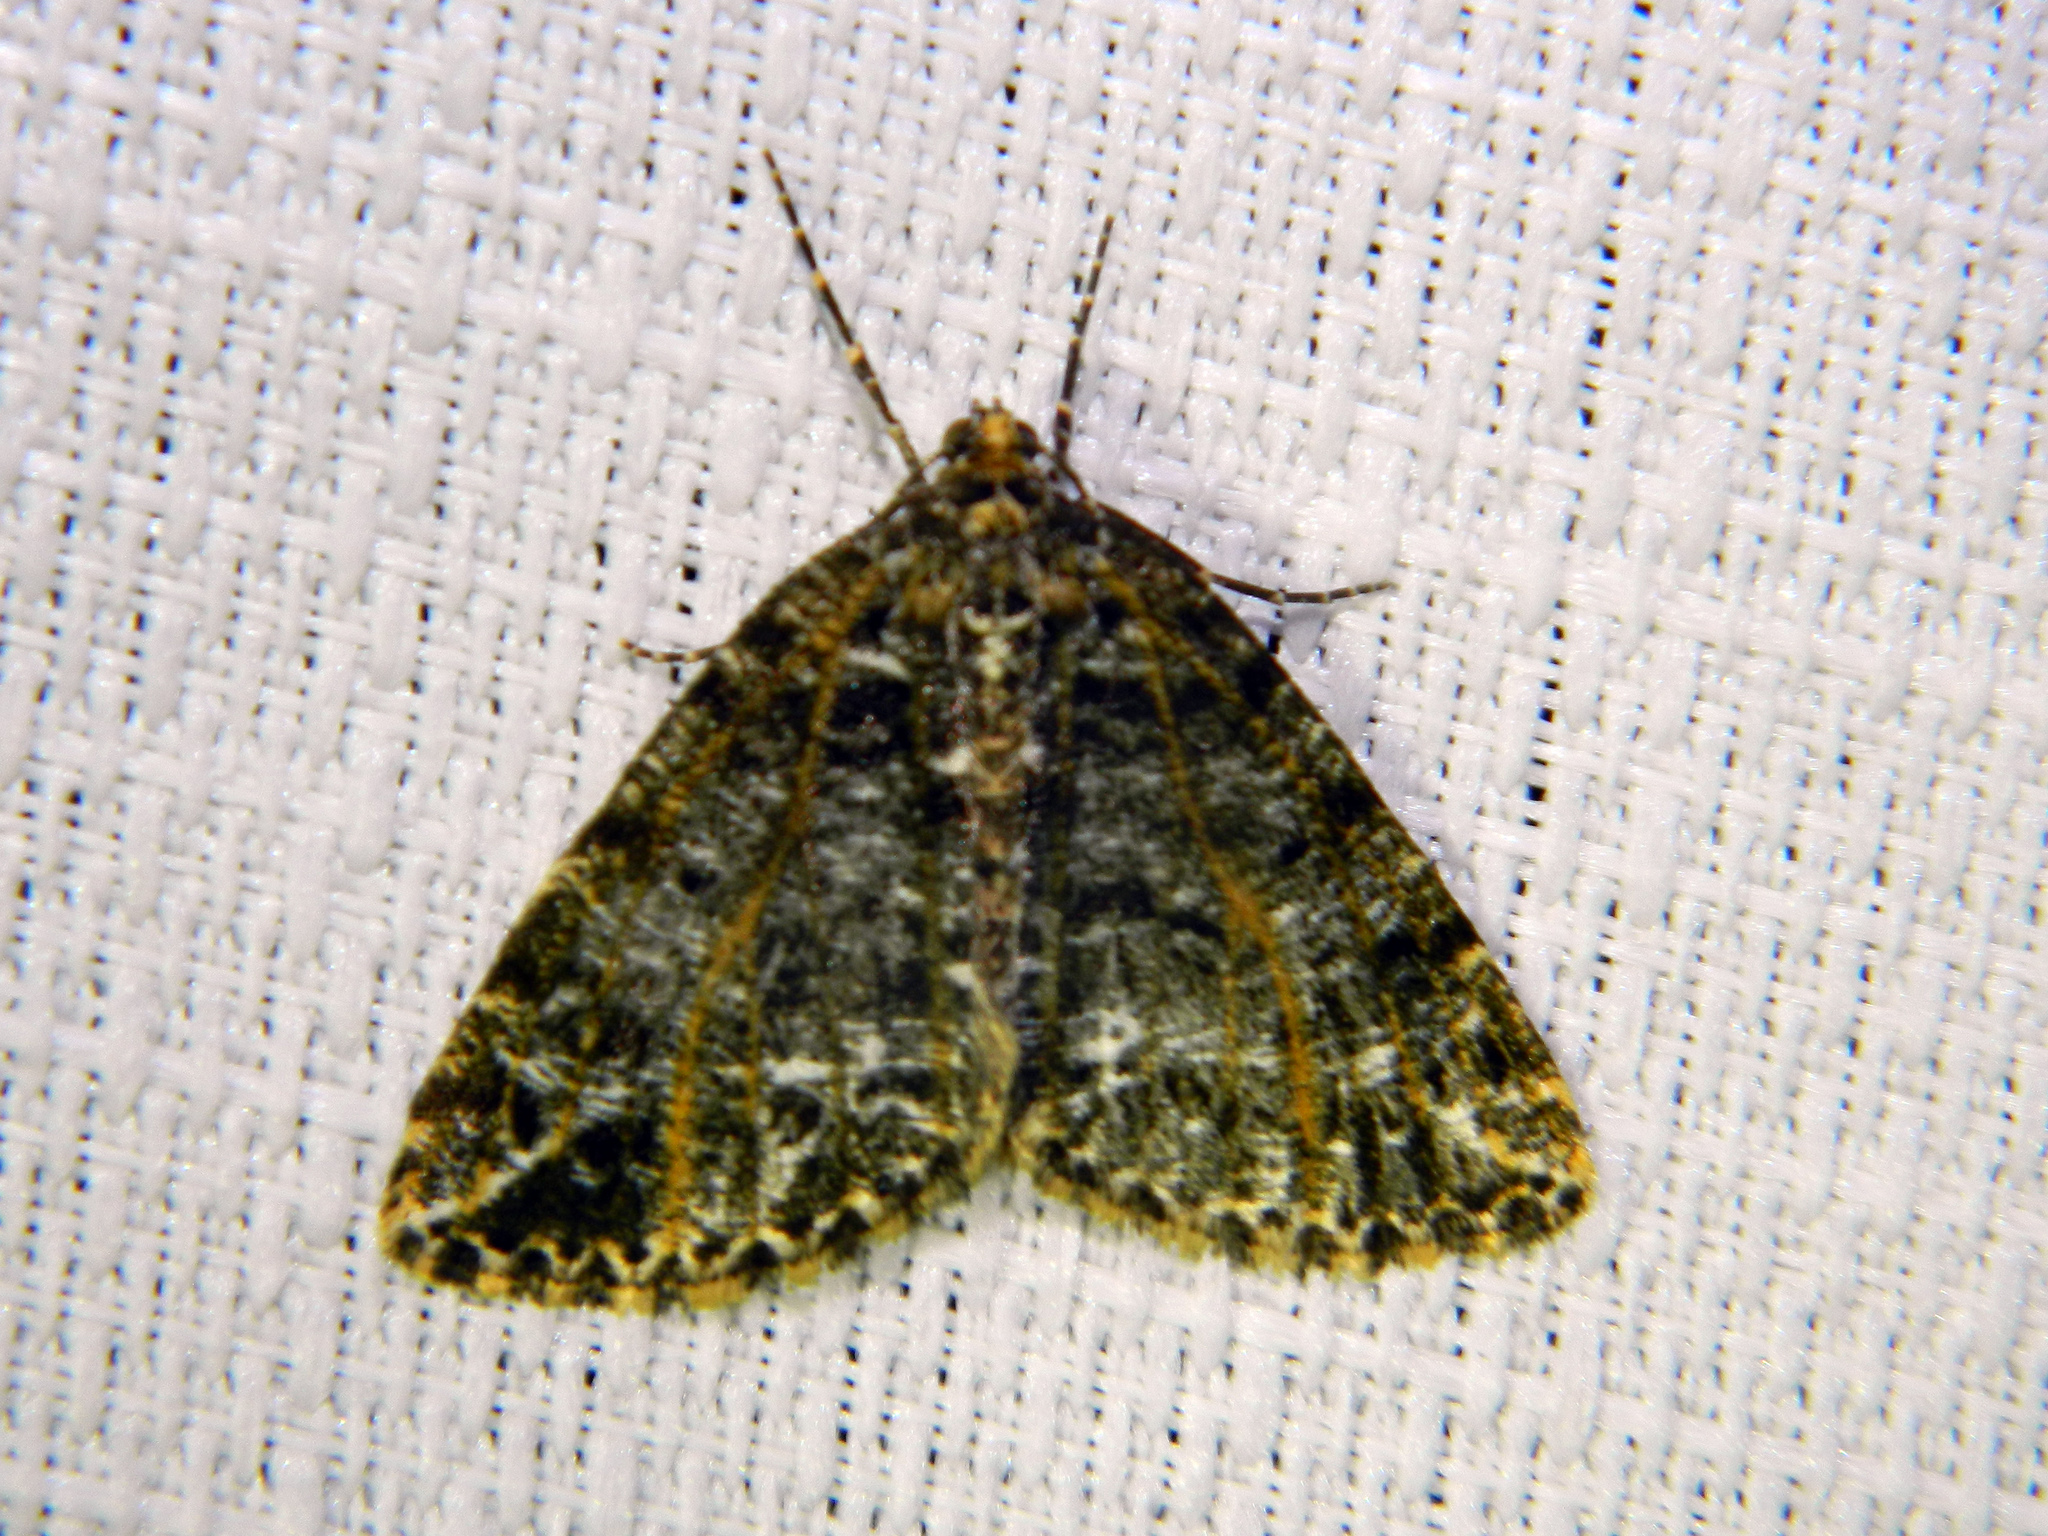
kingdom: Animalia
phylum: Arthropoda
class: Insecta
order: Lepidoptera
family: Geometridae
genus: Orthofidonia
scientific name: Orthofidonia flavivenata
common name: Yellow-veined geometer moth
